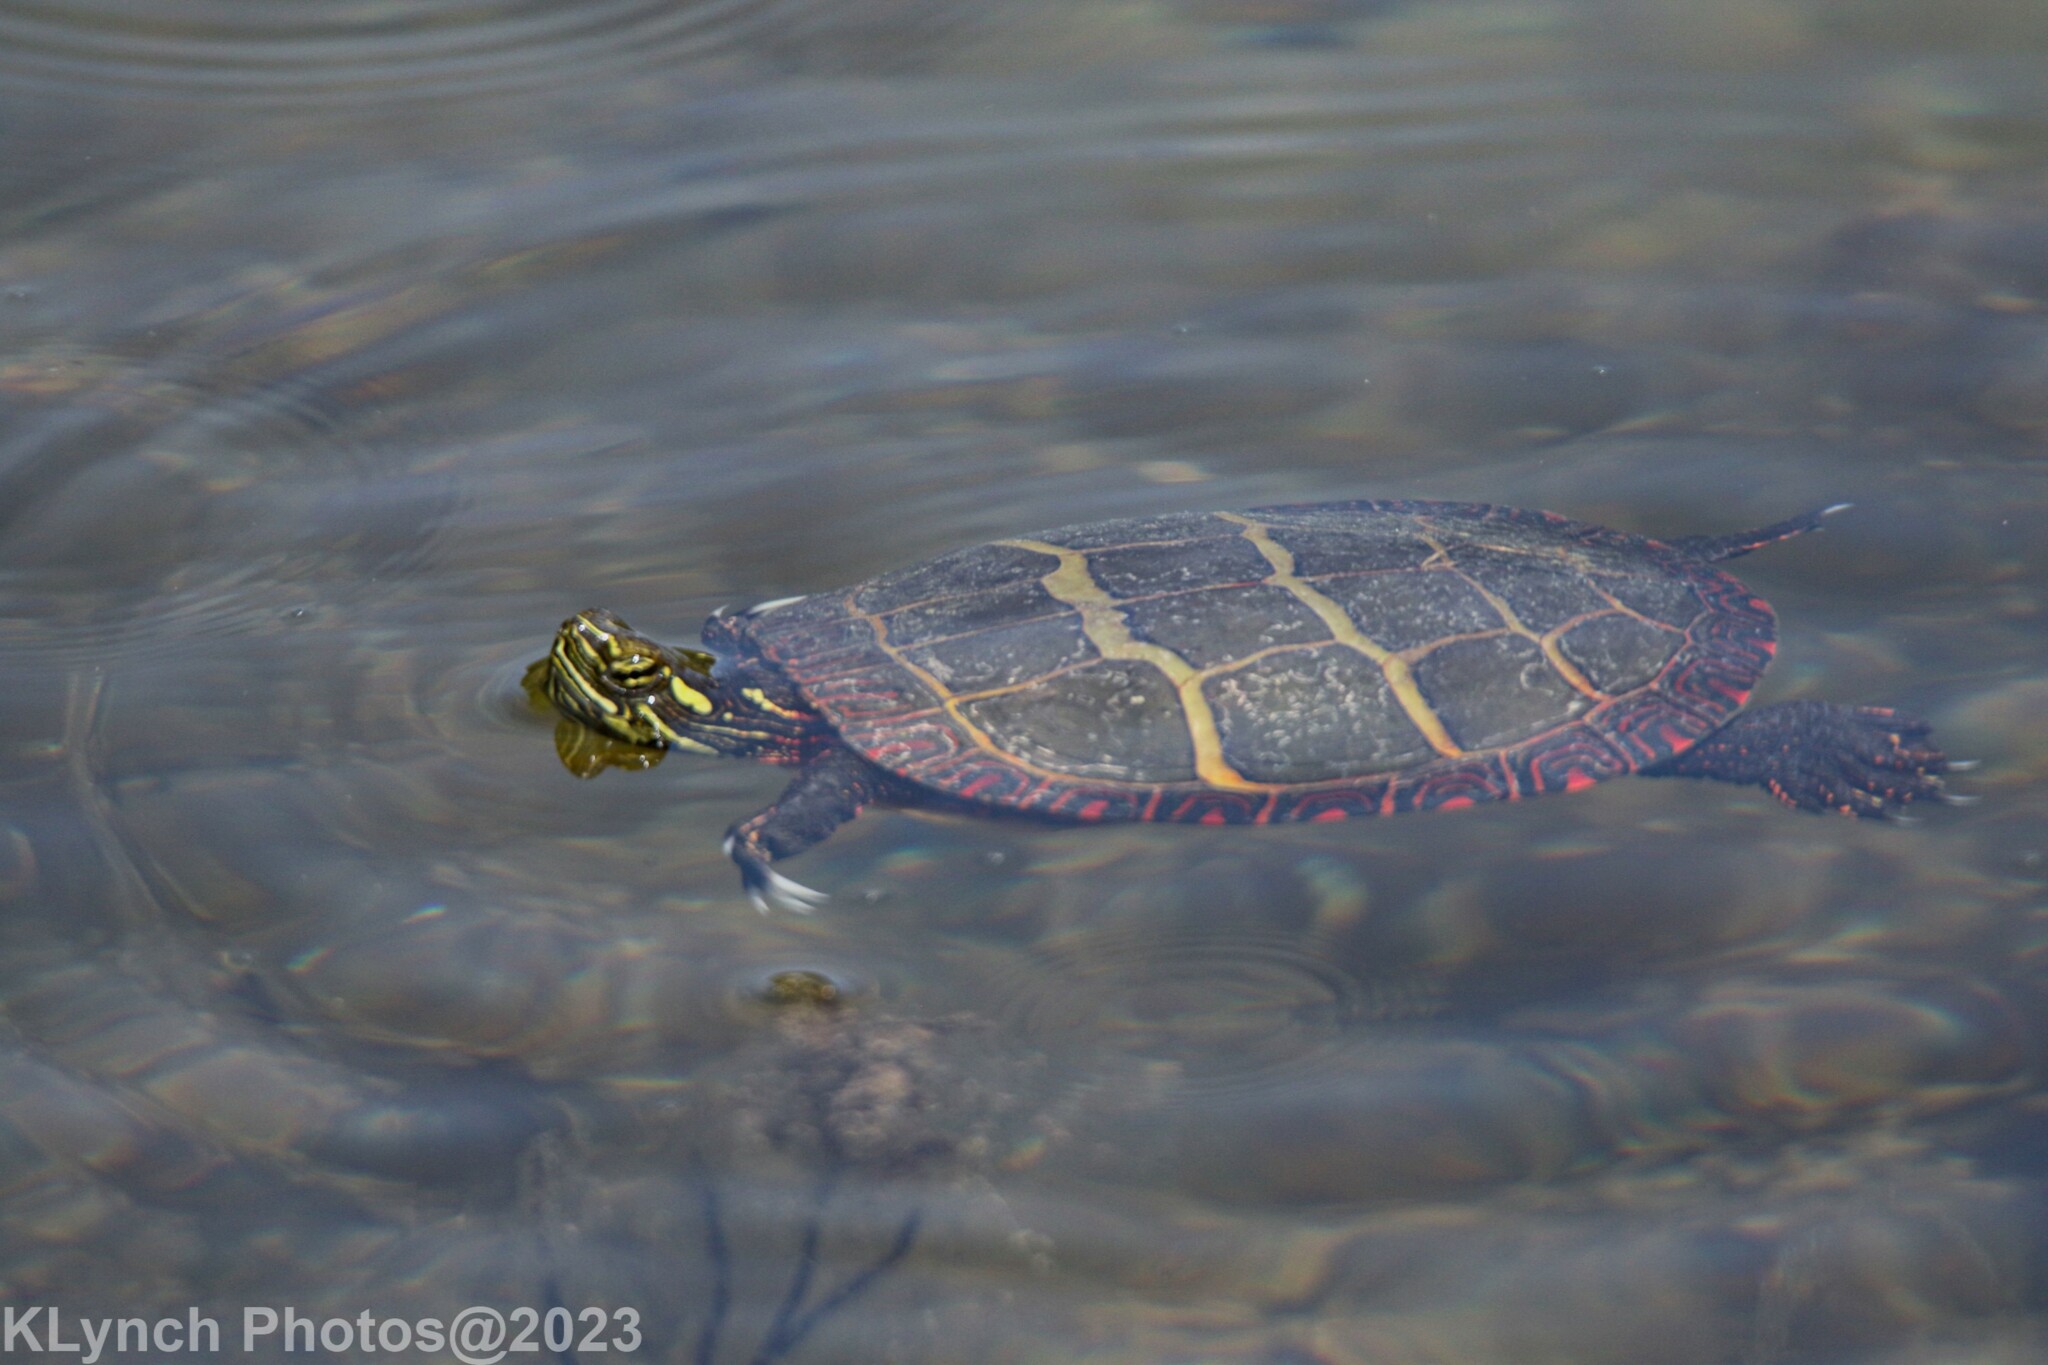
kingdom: Animalia
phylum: Chordata
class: Testudines
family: Emydidae
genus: Chrysemys
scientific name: Chrysemys picta
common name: Painted turtle
